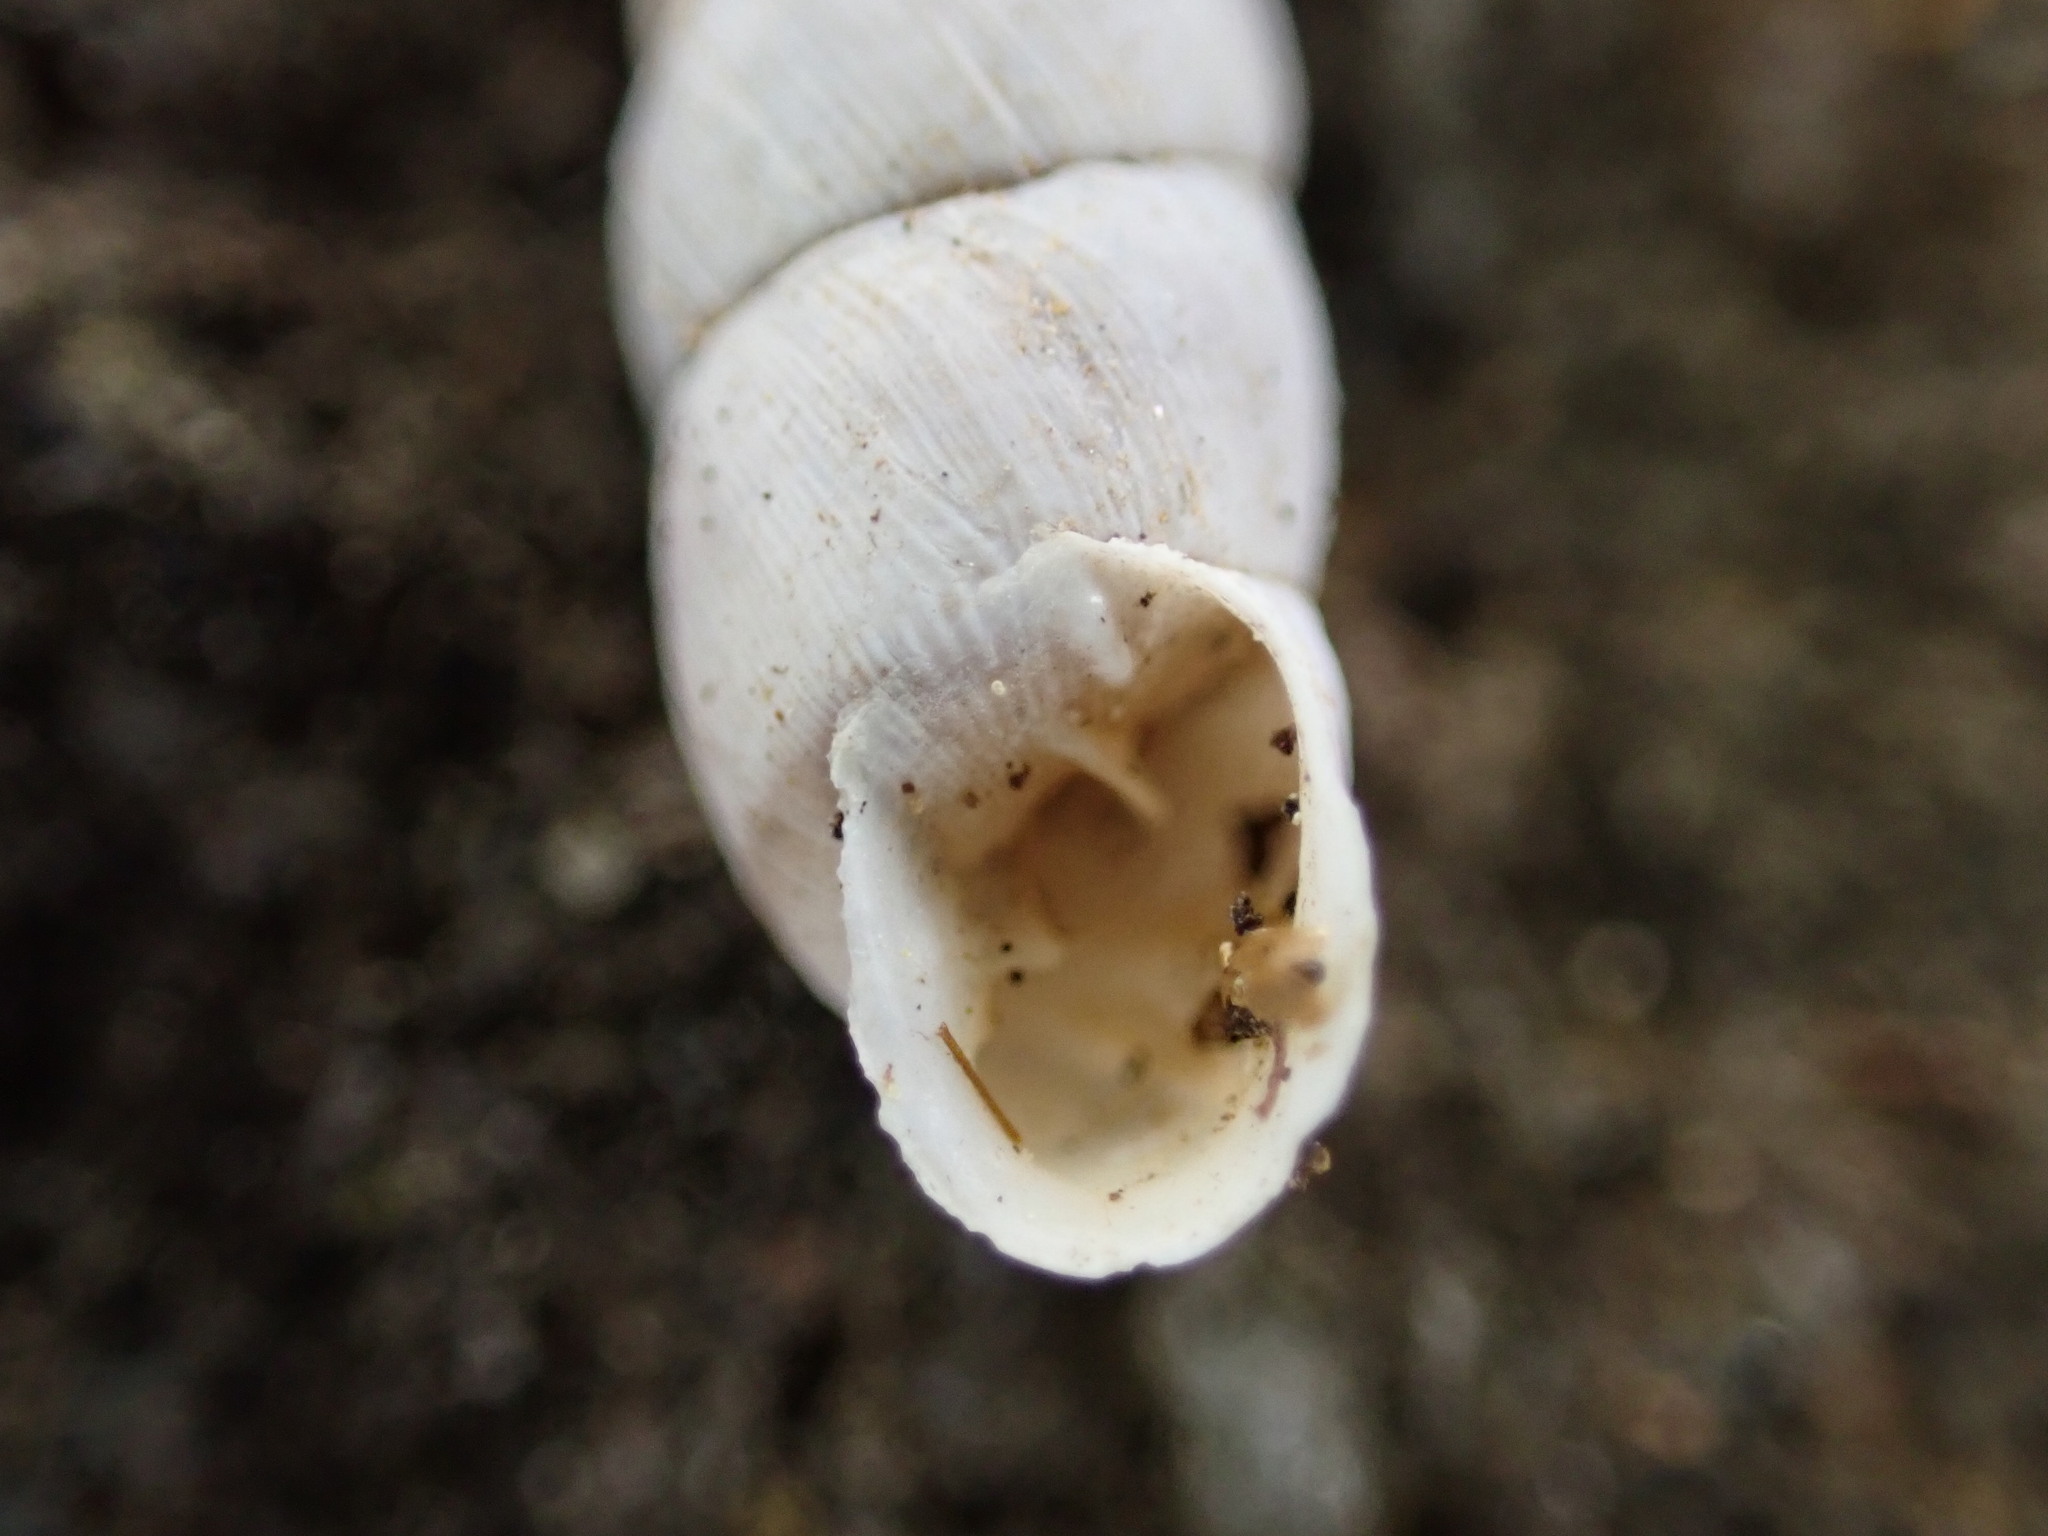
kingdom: Animalia
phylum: Mollusca
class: Gastropoda
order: Stylommatophora
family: Chondrinidae
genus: Solatopupa
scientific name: Solatopupa similis
